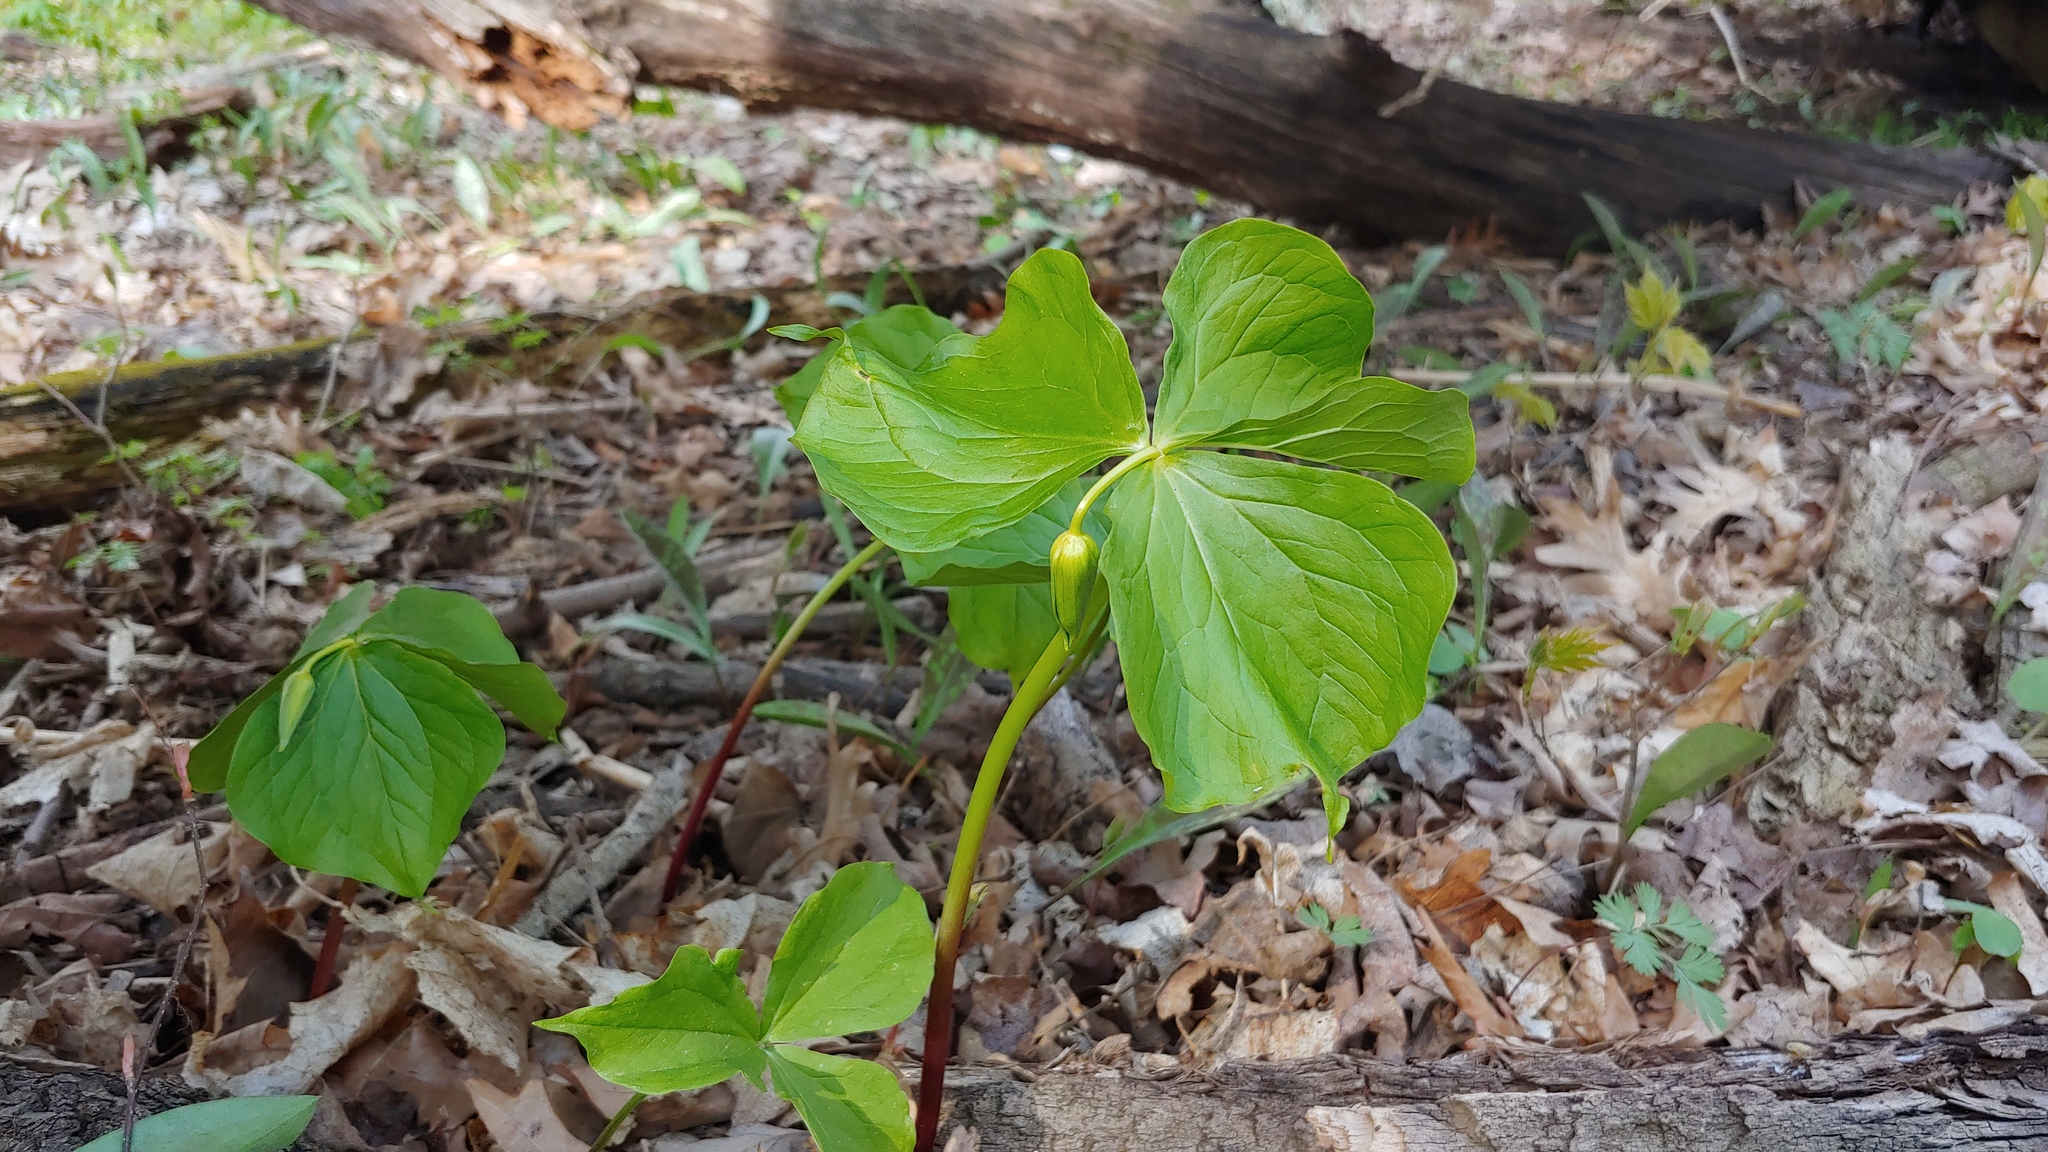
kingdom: Plantae
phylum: Tracheophyta
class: Liliopsida
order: Liliales
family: Melanthiaceae
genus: Trillium
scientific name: Trillium flexipes
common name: Drooping trillium
